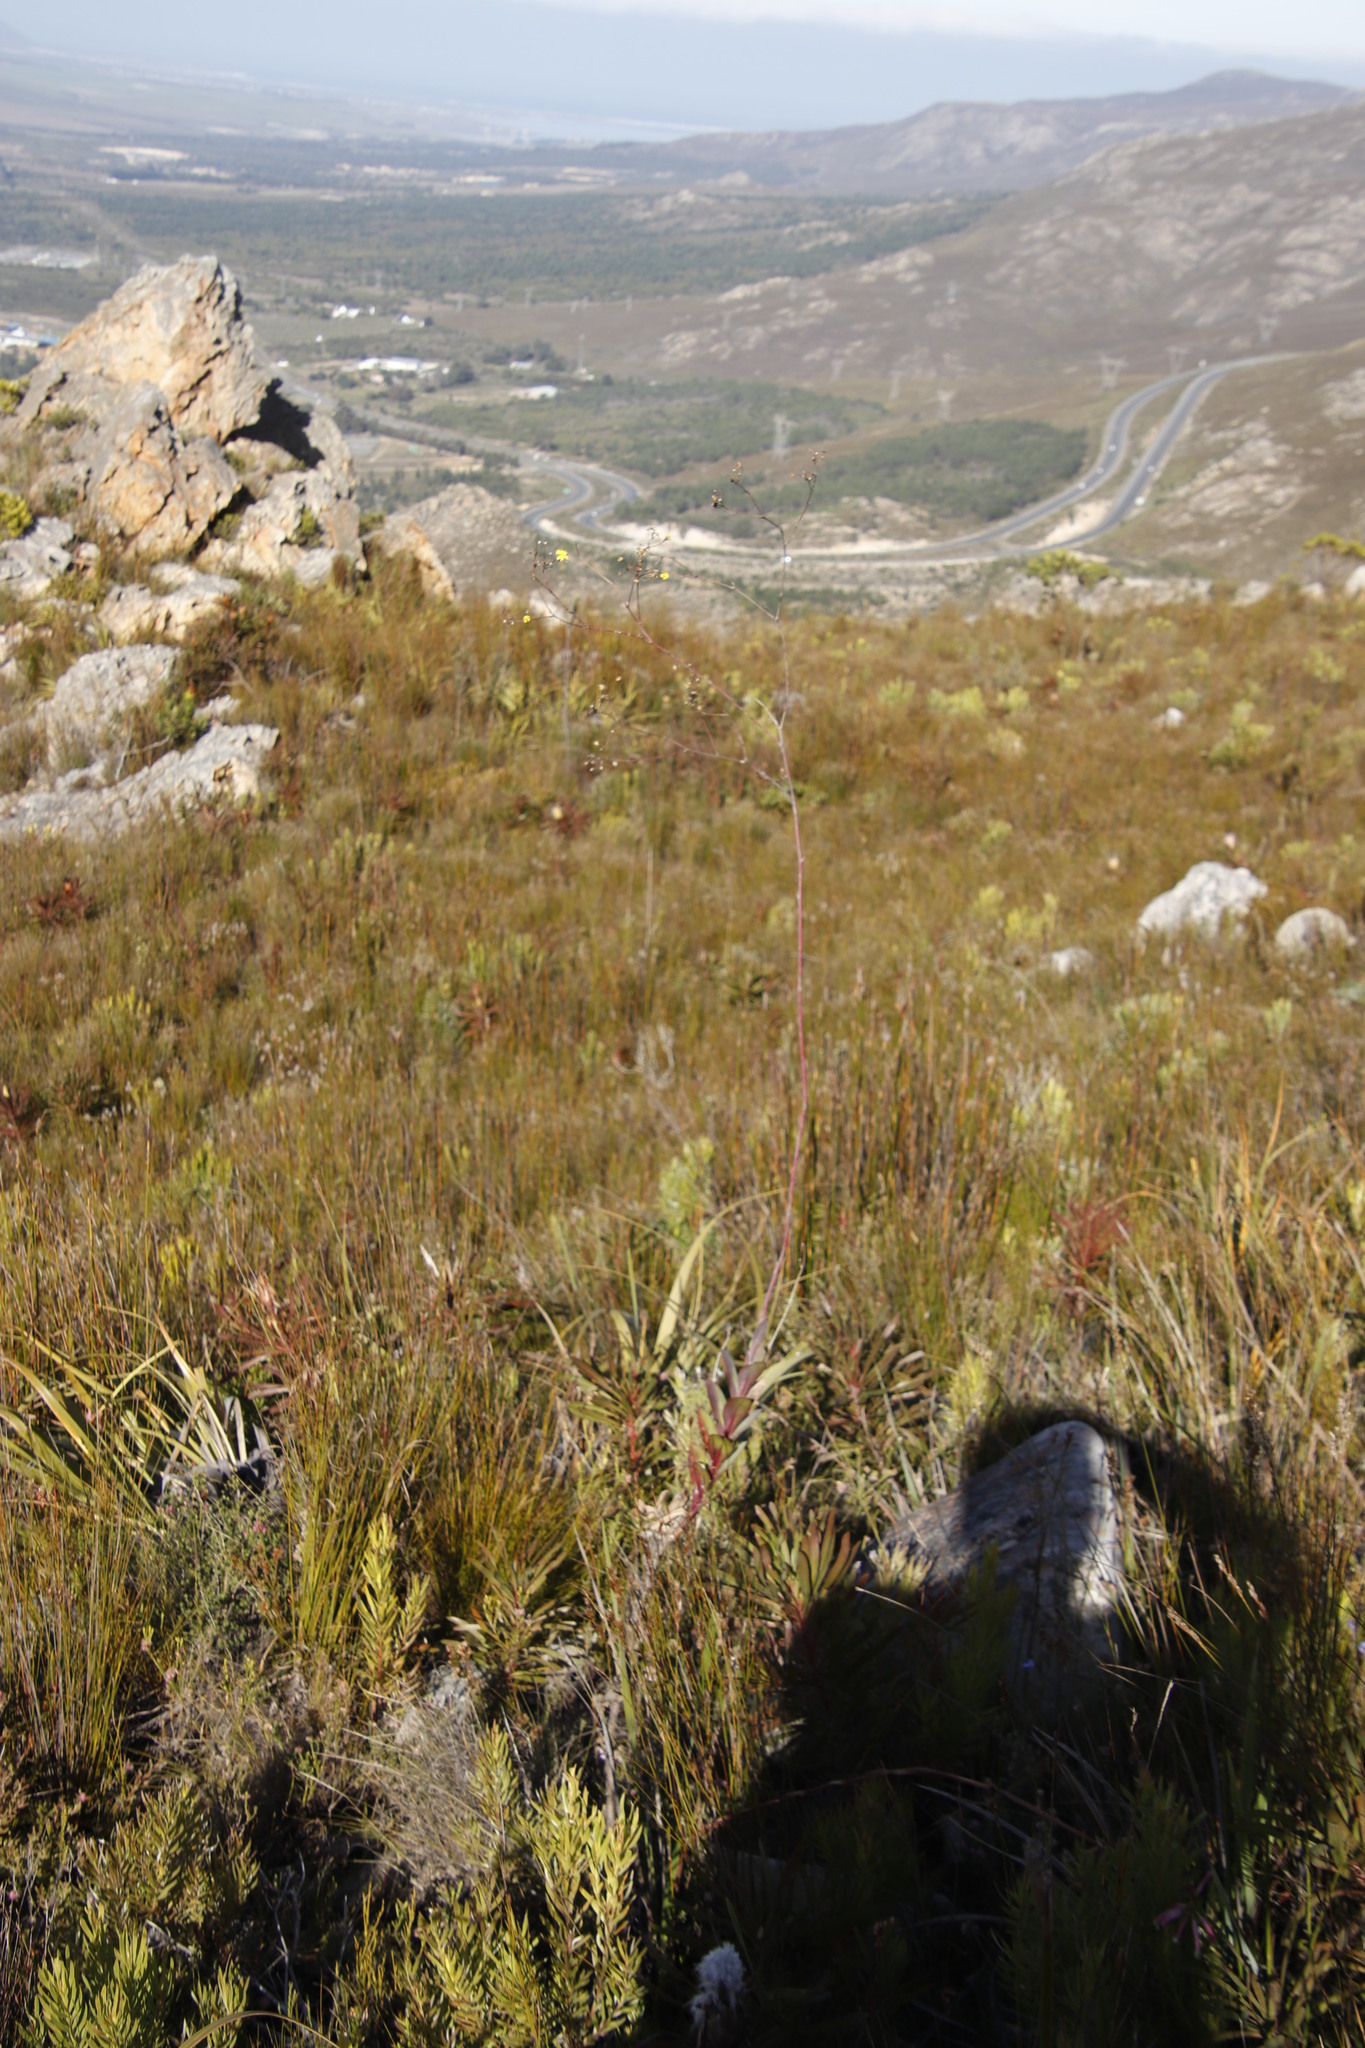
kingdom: Plantae
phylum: Tracheophyta
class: Magnoliopsida
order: Asterales
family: Asteraceae
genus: Othonna
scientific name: Othonna quinquedentata
